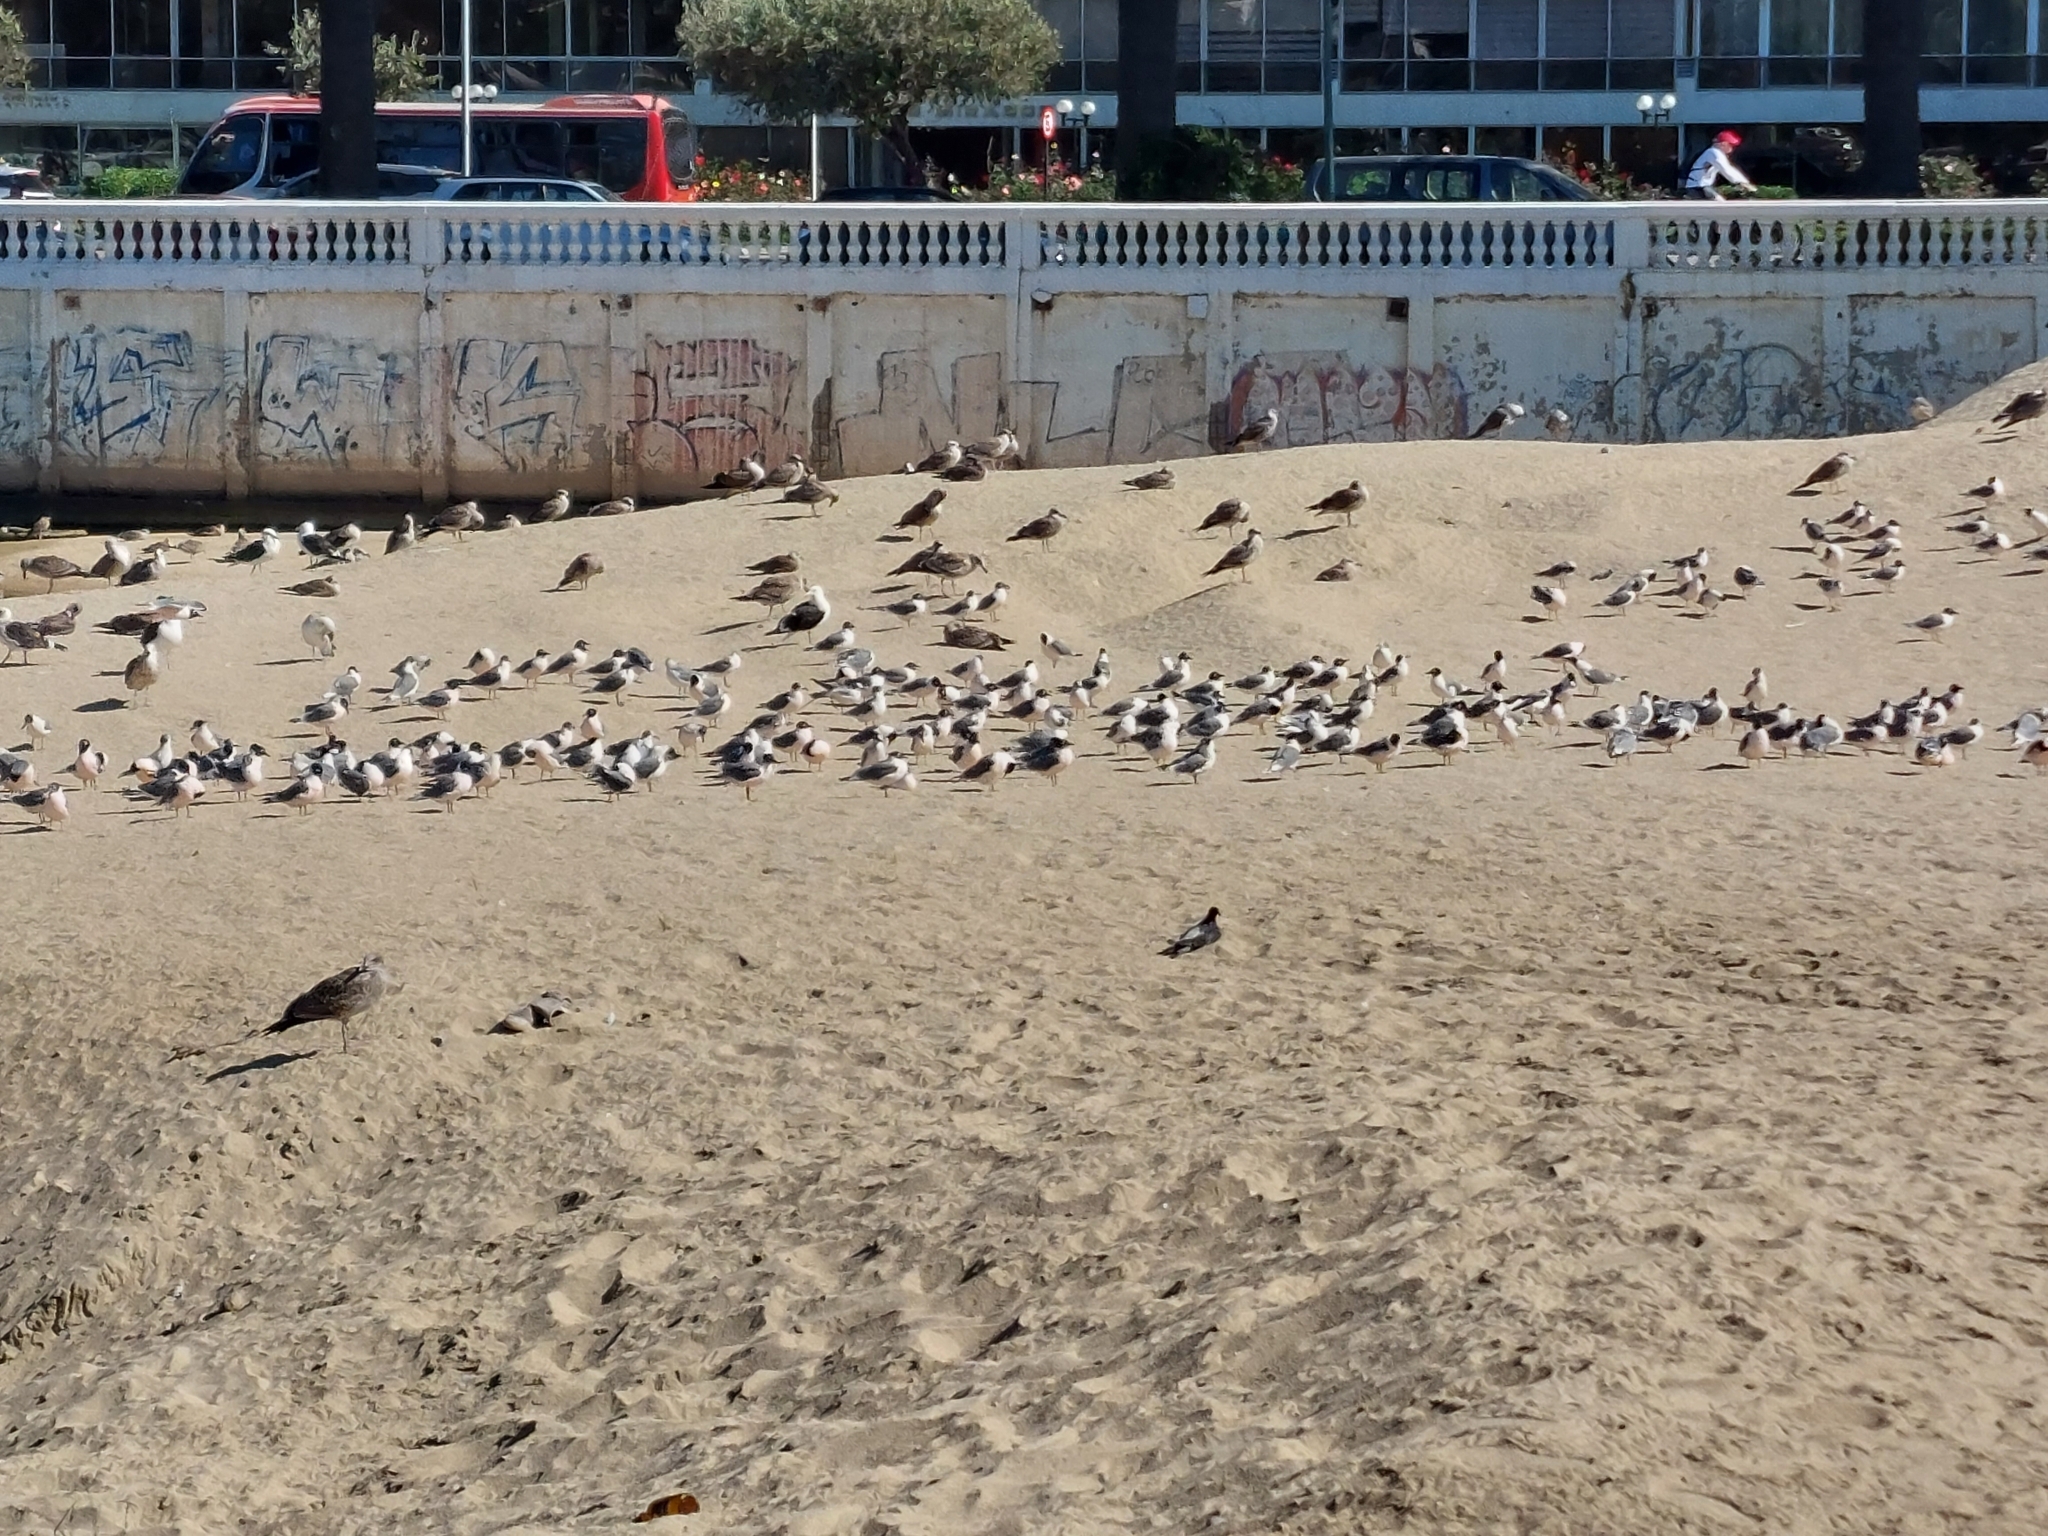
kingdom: Animalia
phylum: Chordata
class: Aves
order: Charadriiformes
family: Laridae
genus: Leucophaeus
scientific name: Leucophaeus pipixcan
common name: Franklin's gull
